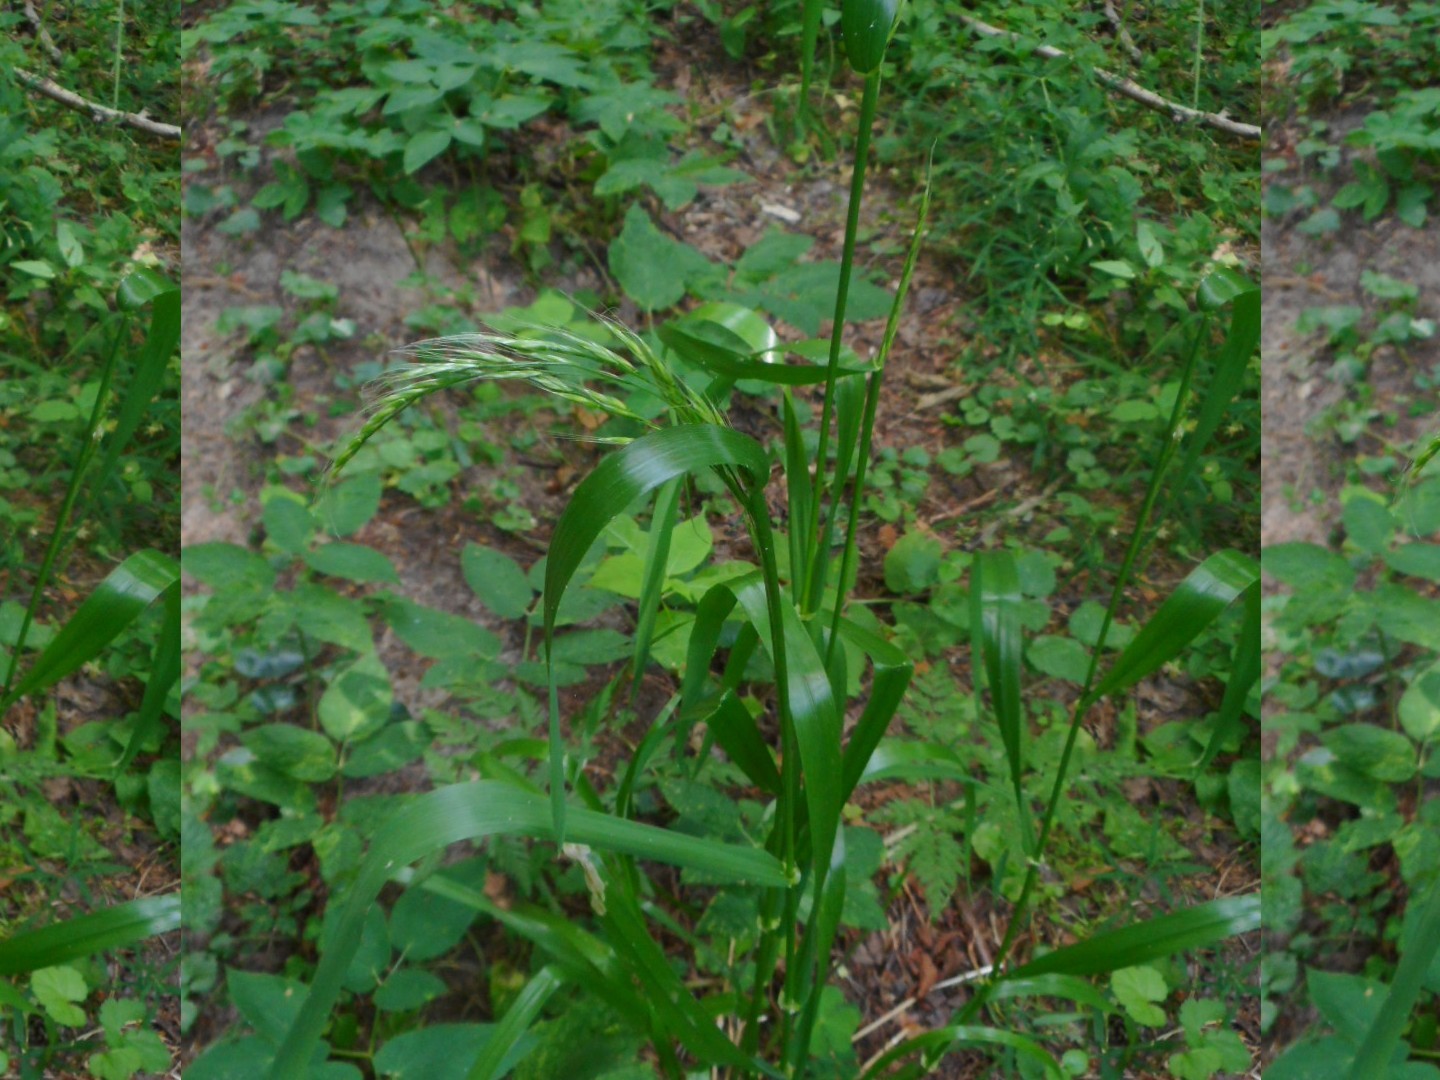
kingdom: Plantae
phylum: Tracheophyta
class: Liliopsida
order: Poales
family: Poaceae
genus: Lolium
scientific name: Lolium giganteum
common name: Giant fescue
